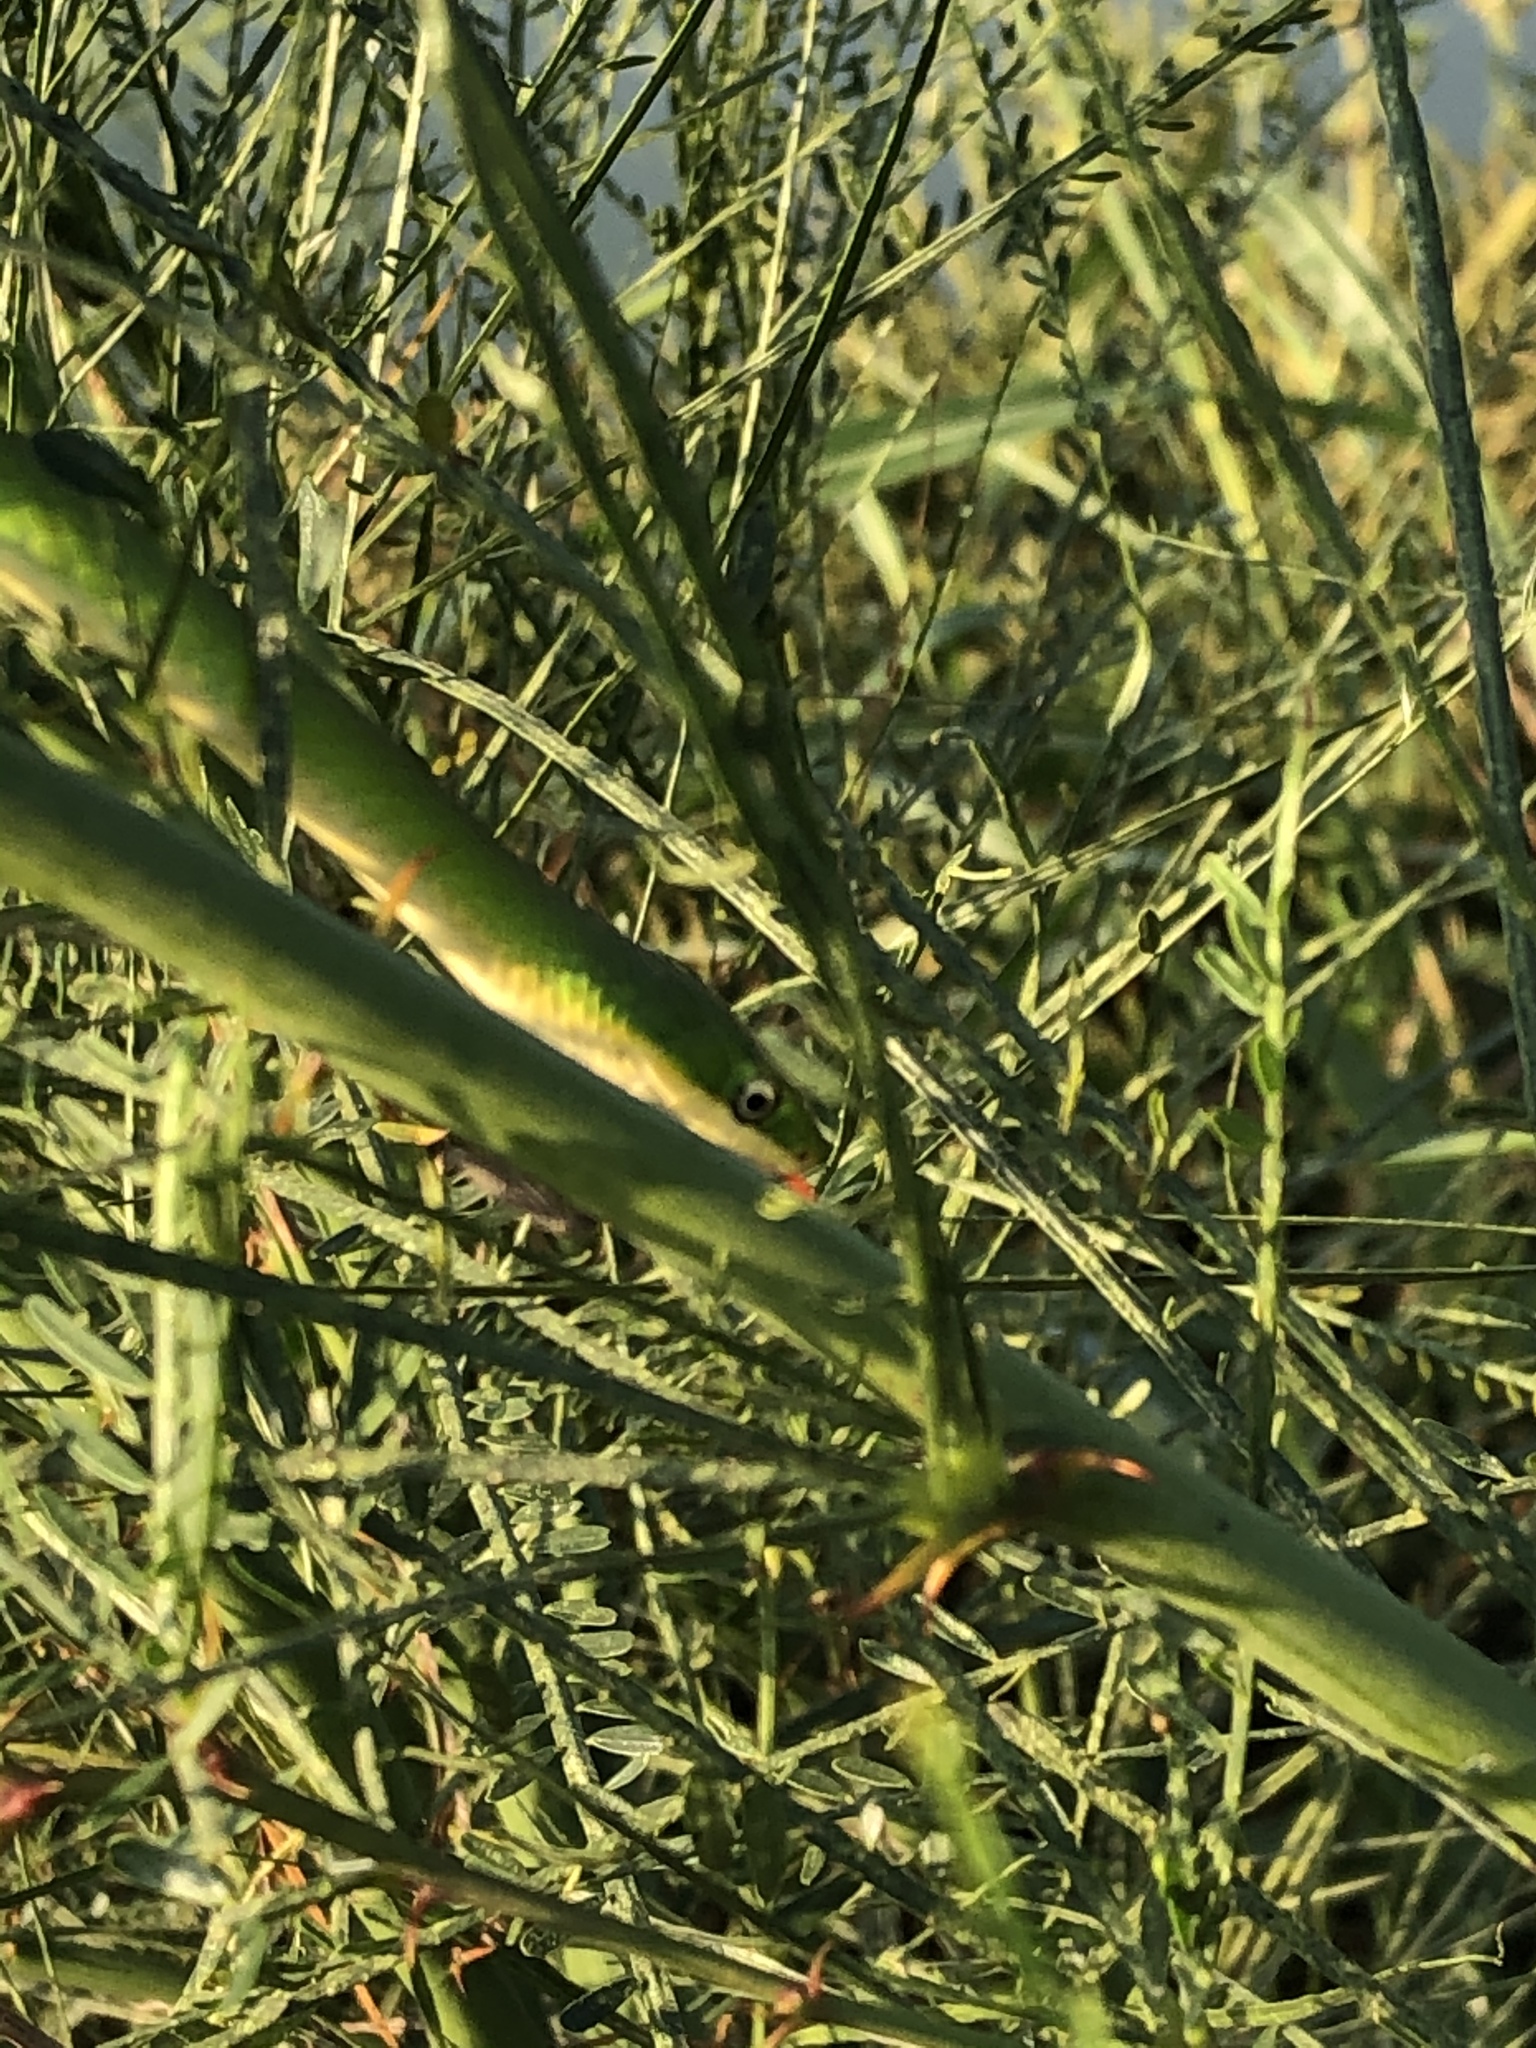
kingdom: Animalia
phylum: Chordata
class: Squamata
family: Colubridae
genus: Opheodrys
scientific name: Opheodrys aestivus
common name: Rough greensnake
